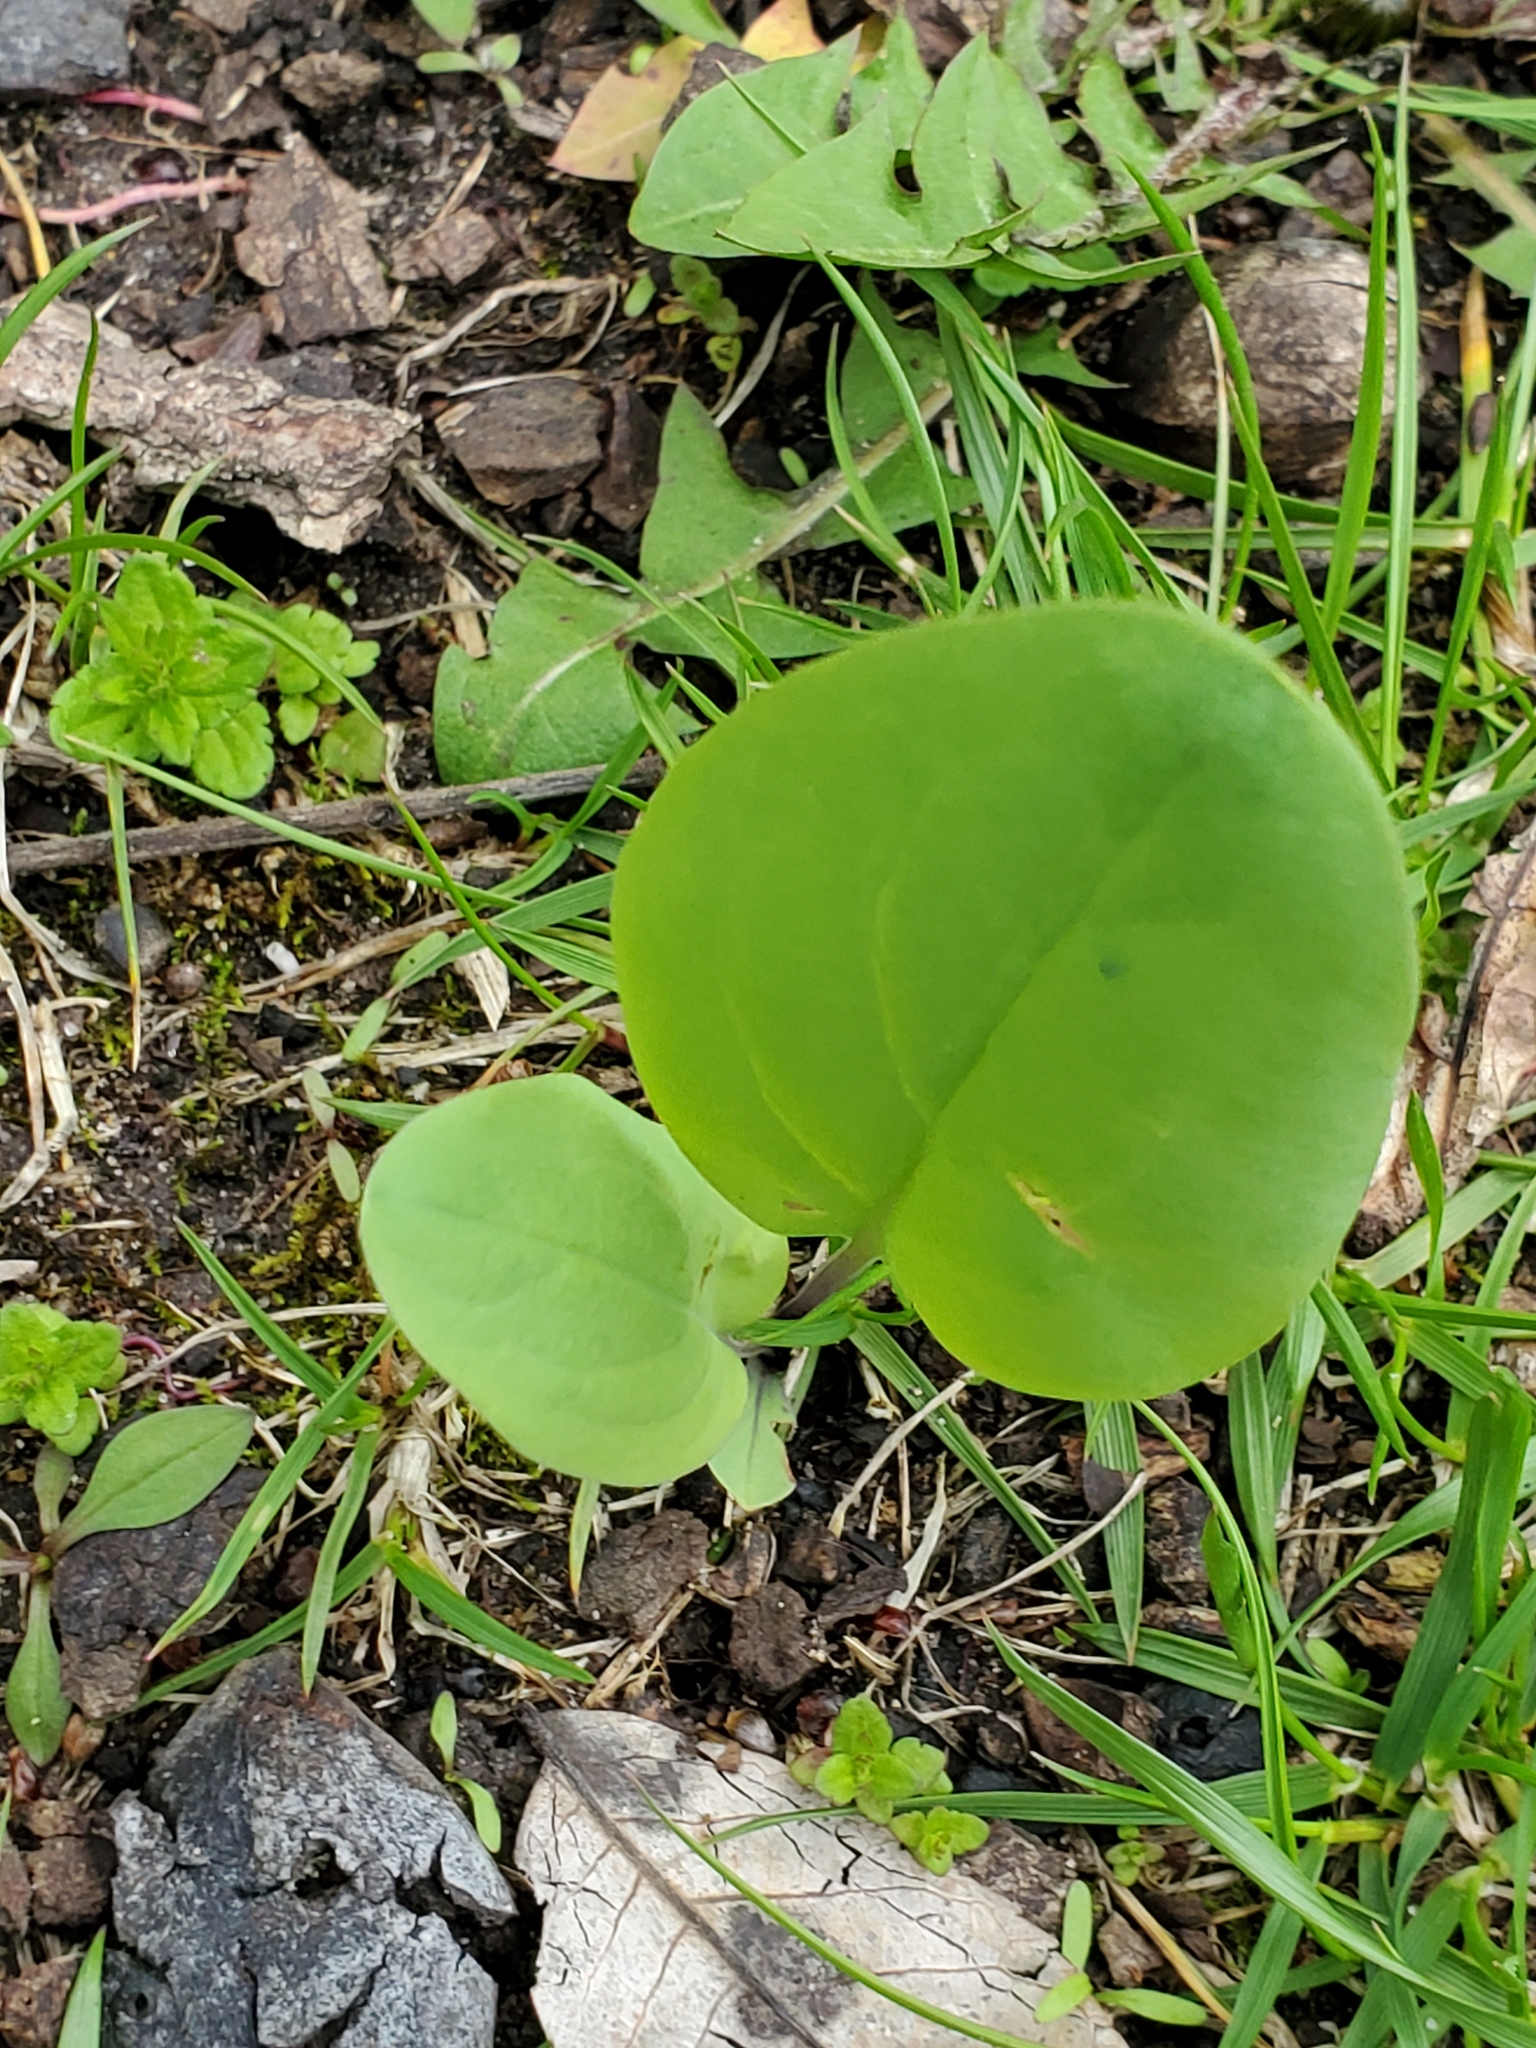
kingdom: Plantae
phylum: Tracheophyta
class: Magnoliopsida
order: Boraginales
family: Boraginaceae
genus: Mertensia
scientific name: Mertensia virginica
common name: Virginia bluebells
